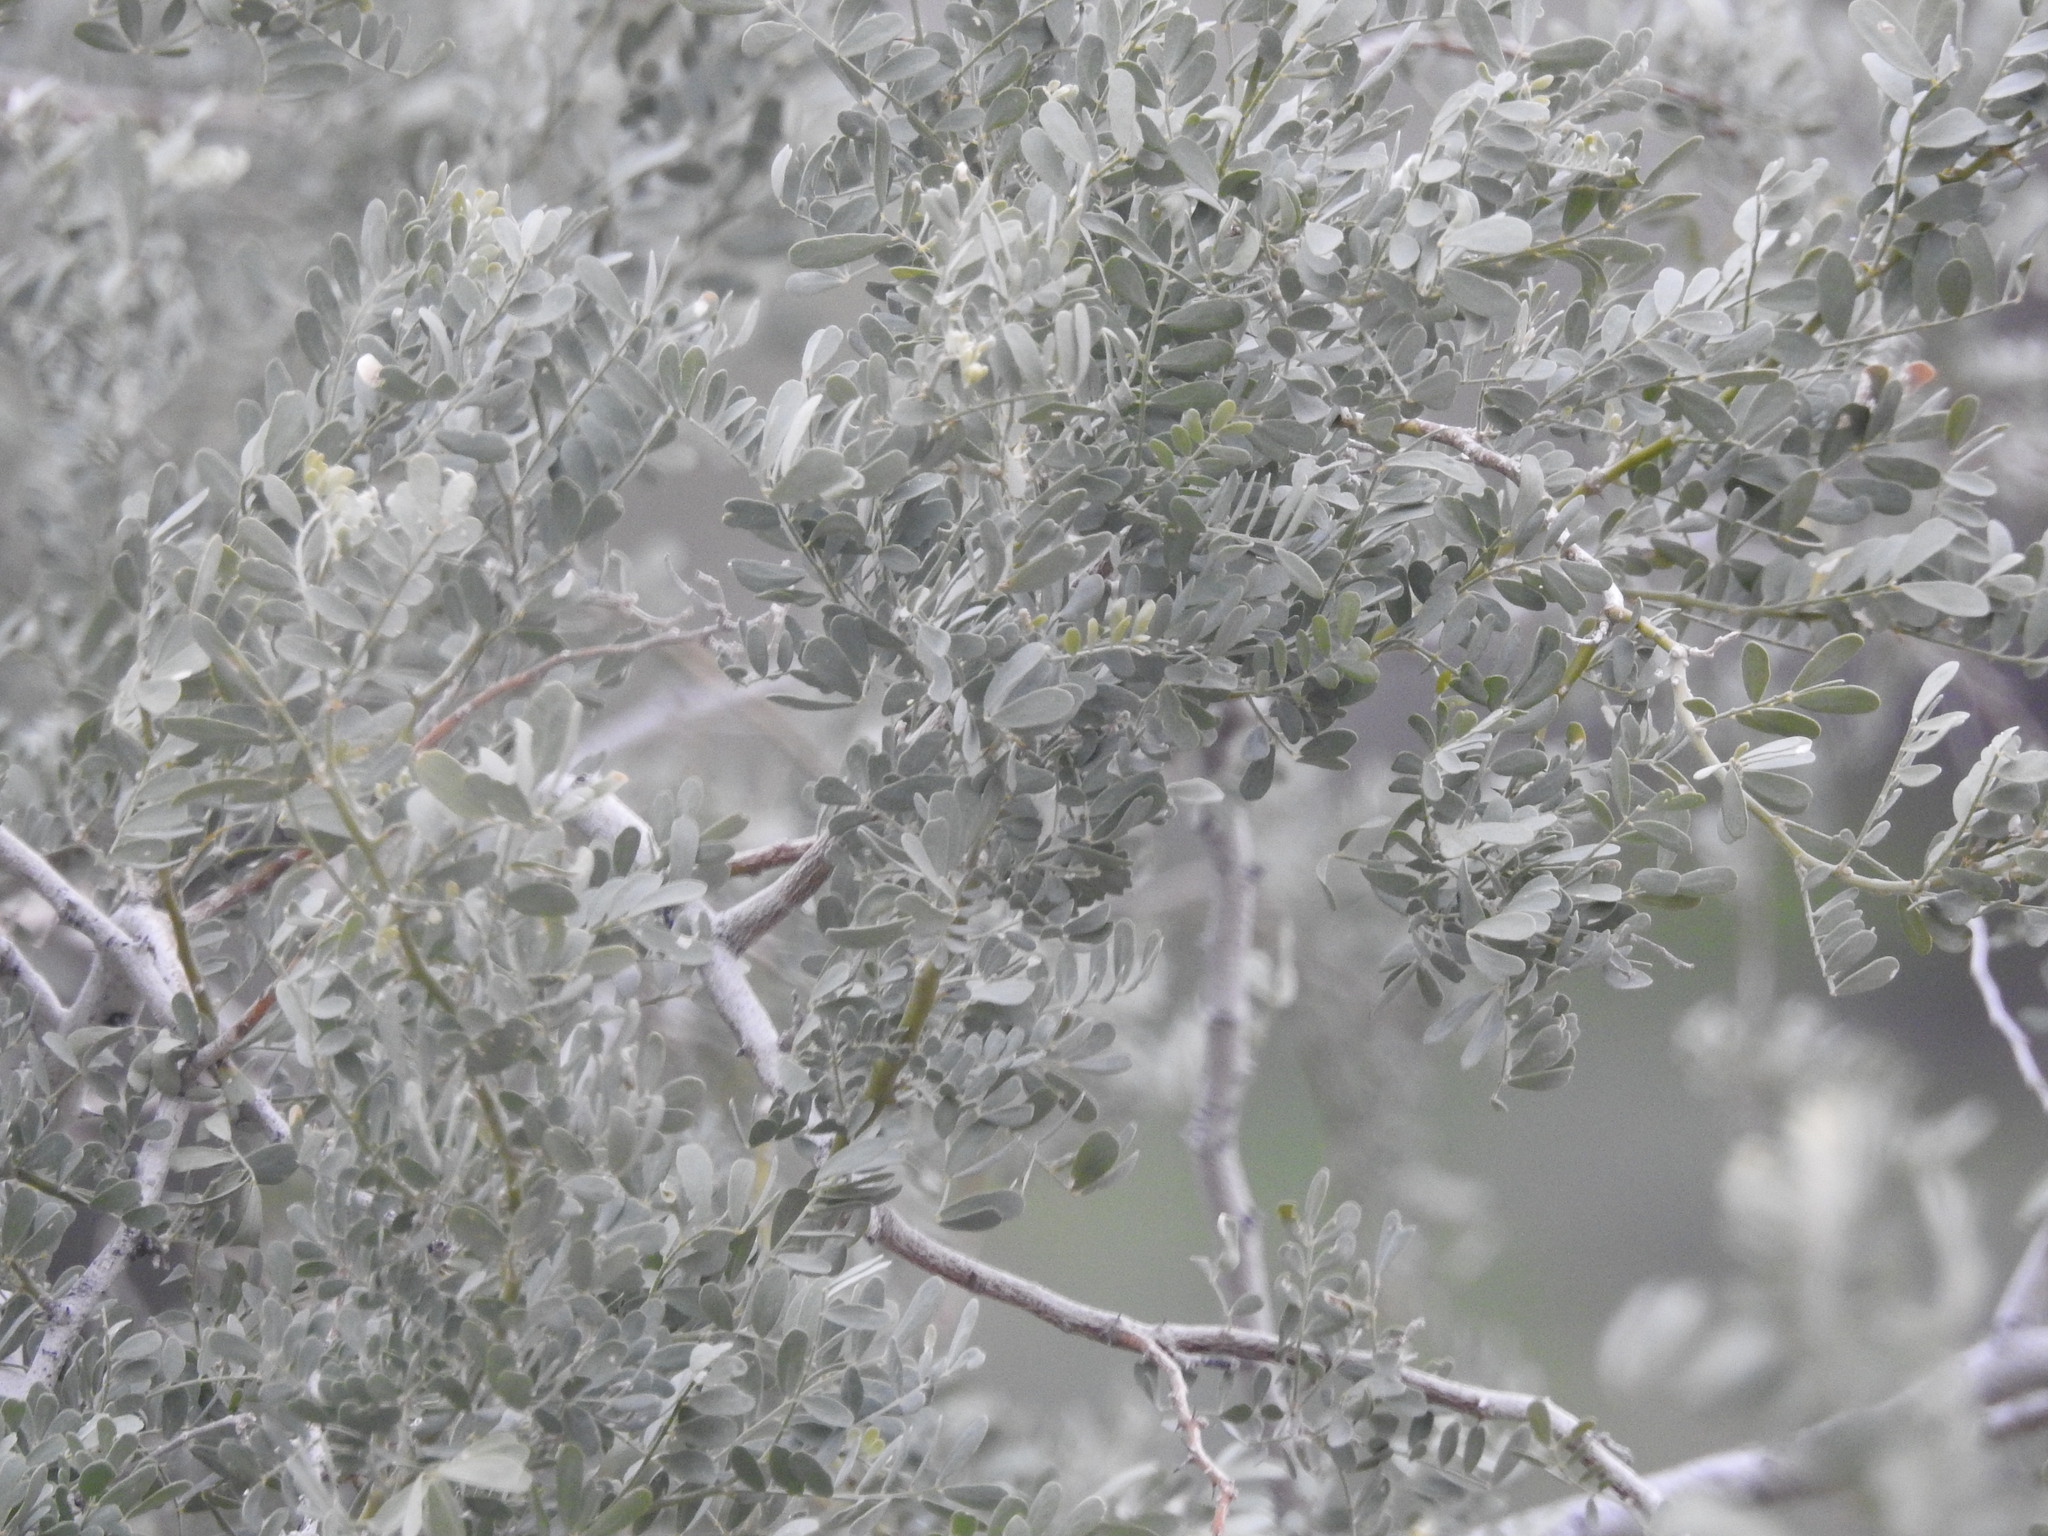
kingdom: Plantae
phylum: Tracheophyta
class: Magnoliopsida
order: Fabales
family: Fabaceae
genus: Olneya
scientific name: Olneya tesota
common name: Desert ironwood
